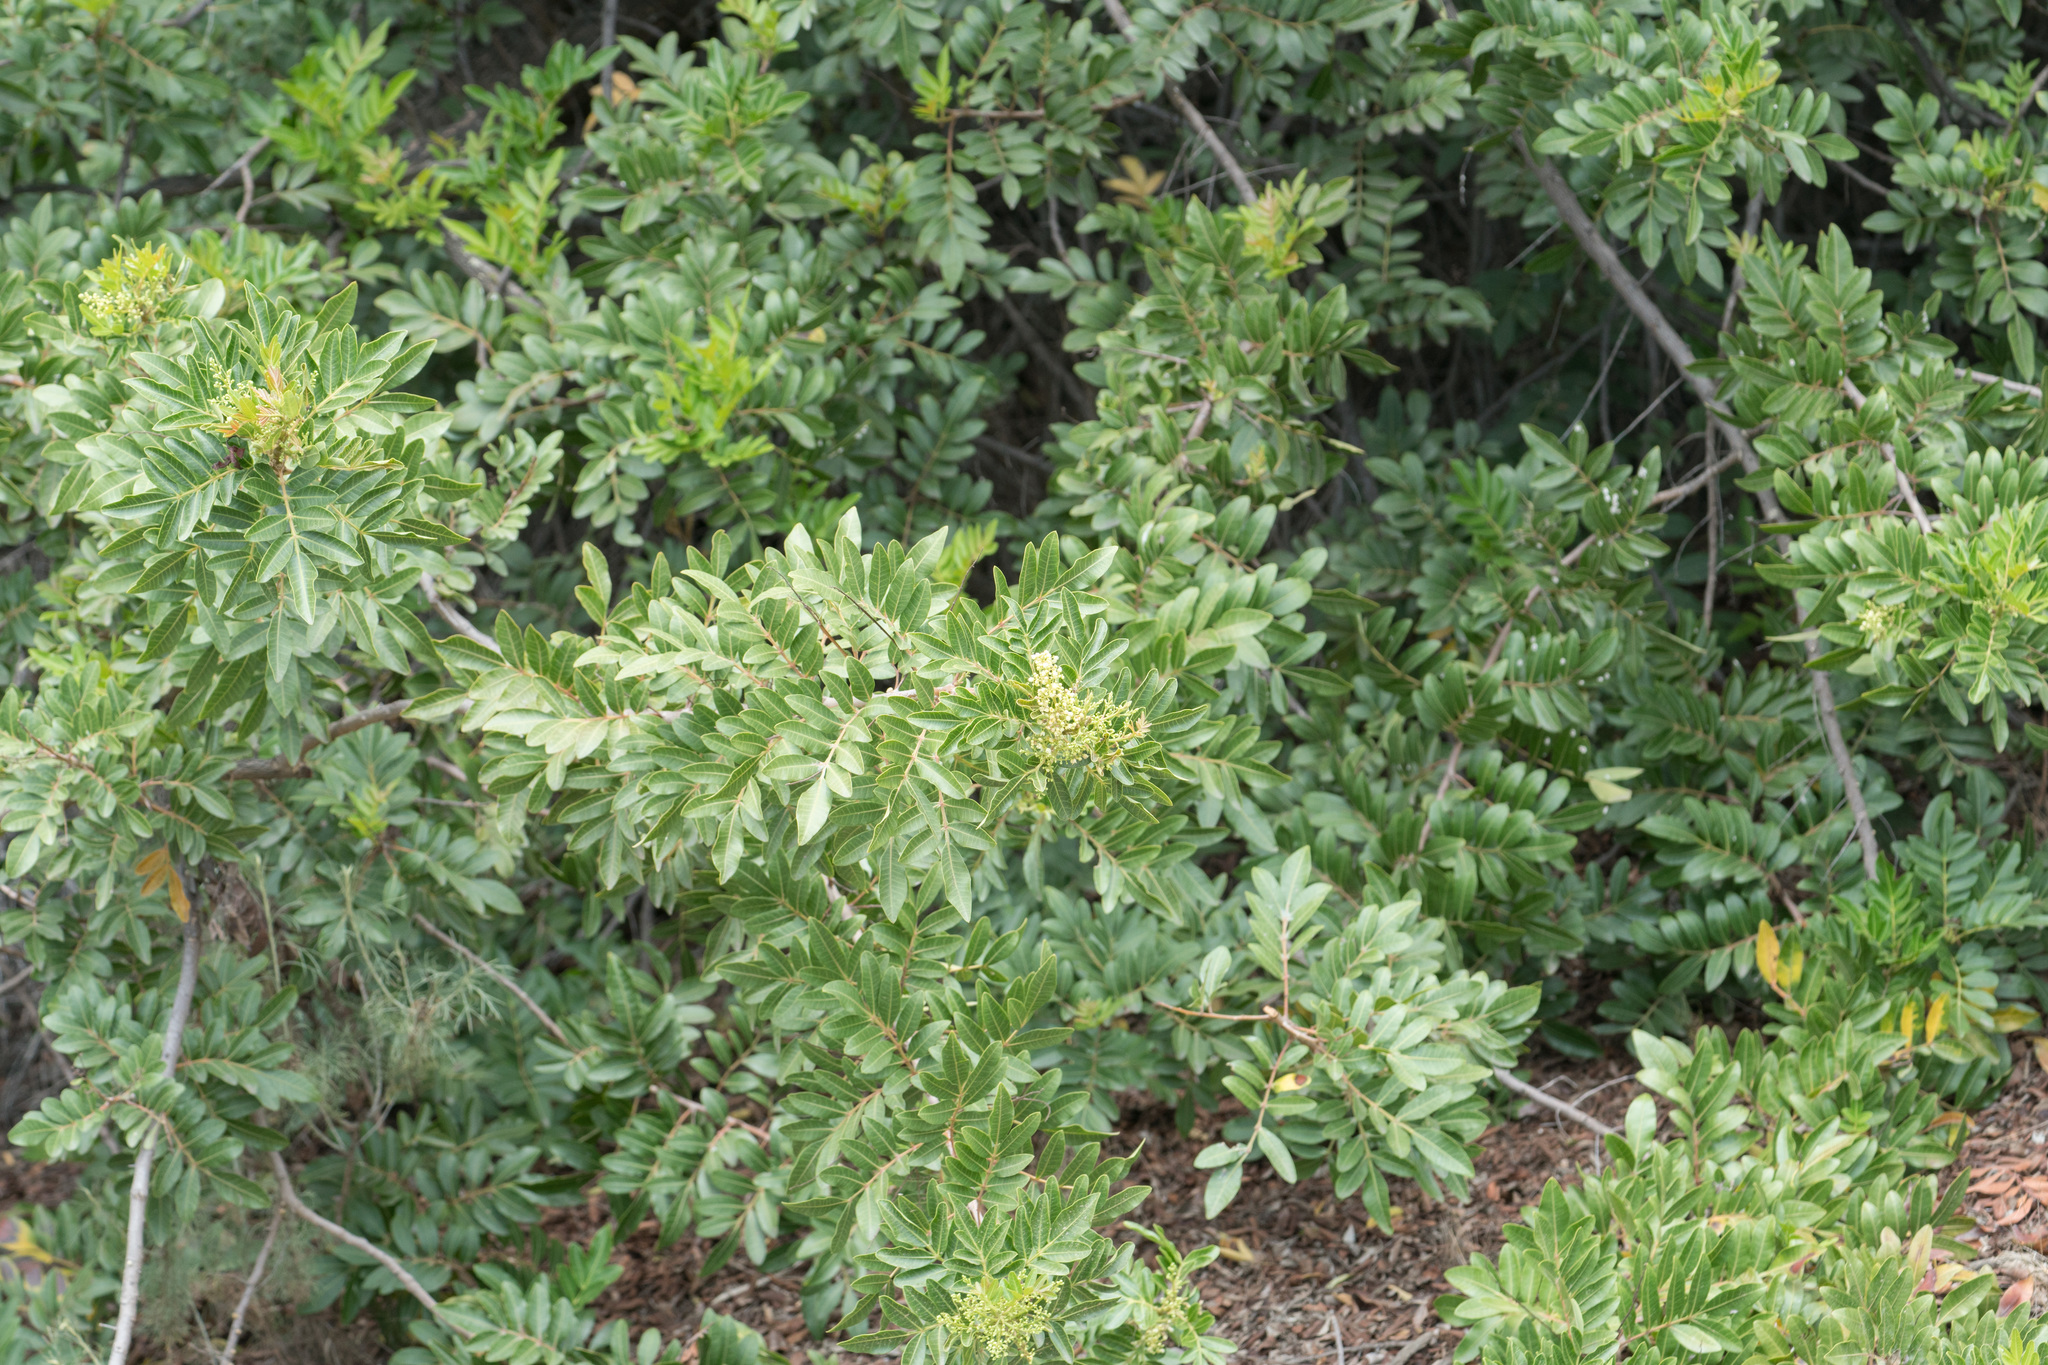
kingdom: Plantae
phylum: Tracheophyta
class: Magnoliopsida
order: Sapindales
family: Anacardiaceae
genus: Schinus
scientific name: Schinus terebinthifolia
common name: Brazilian peppertree
